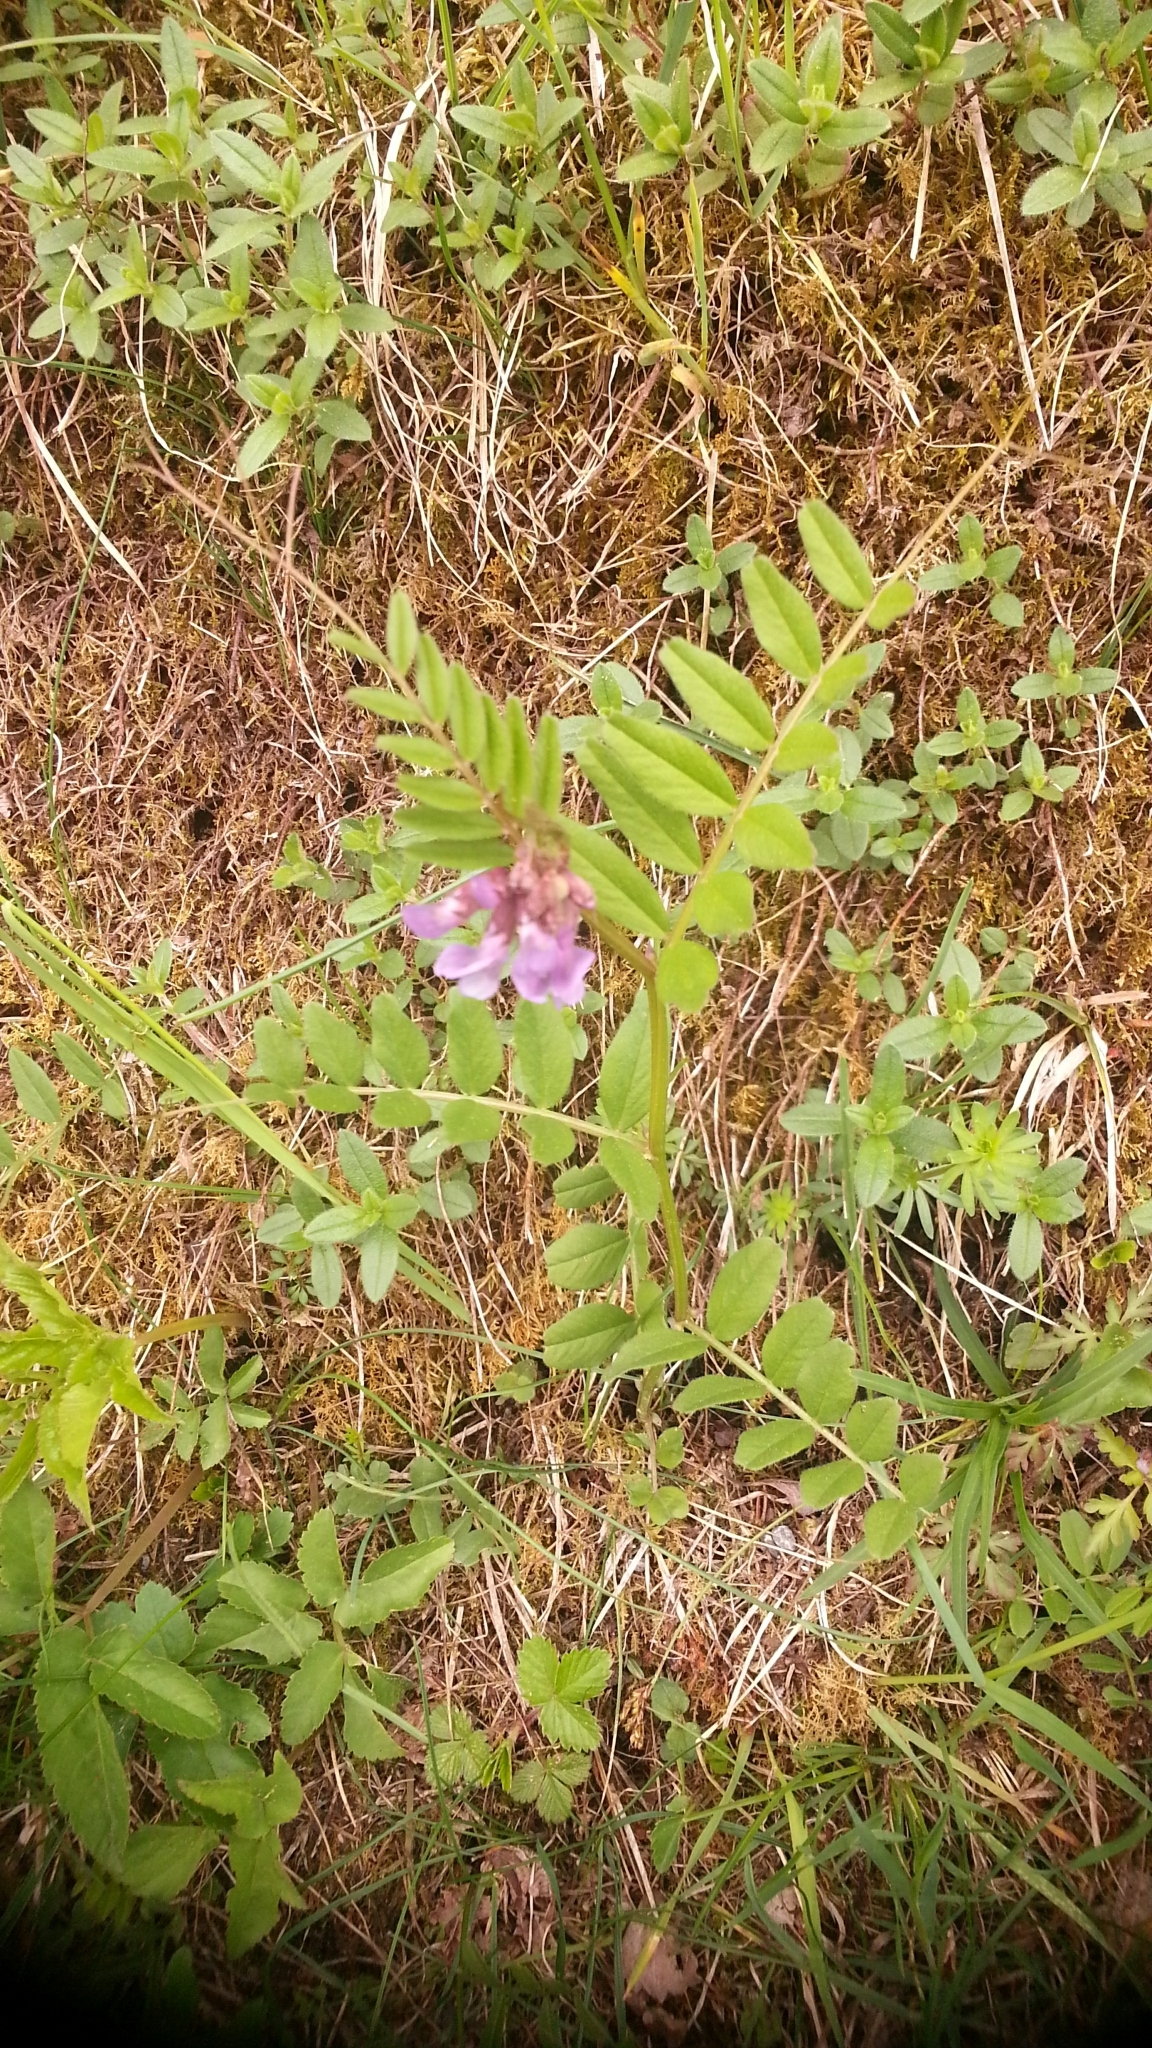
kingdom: Plantae
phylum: Tracheophyta
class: Magnoliopsida
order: Fabales
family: Fabaceae
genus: Vicia
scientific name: Vicia sepium
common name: Bush vetch
